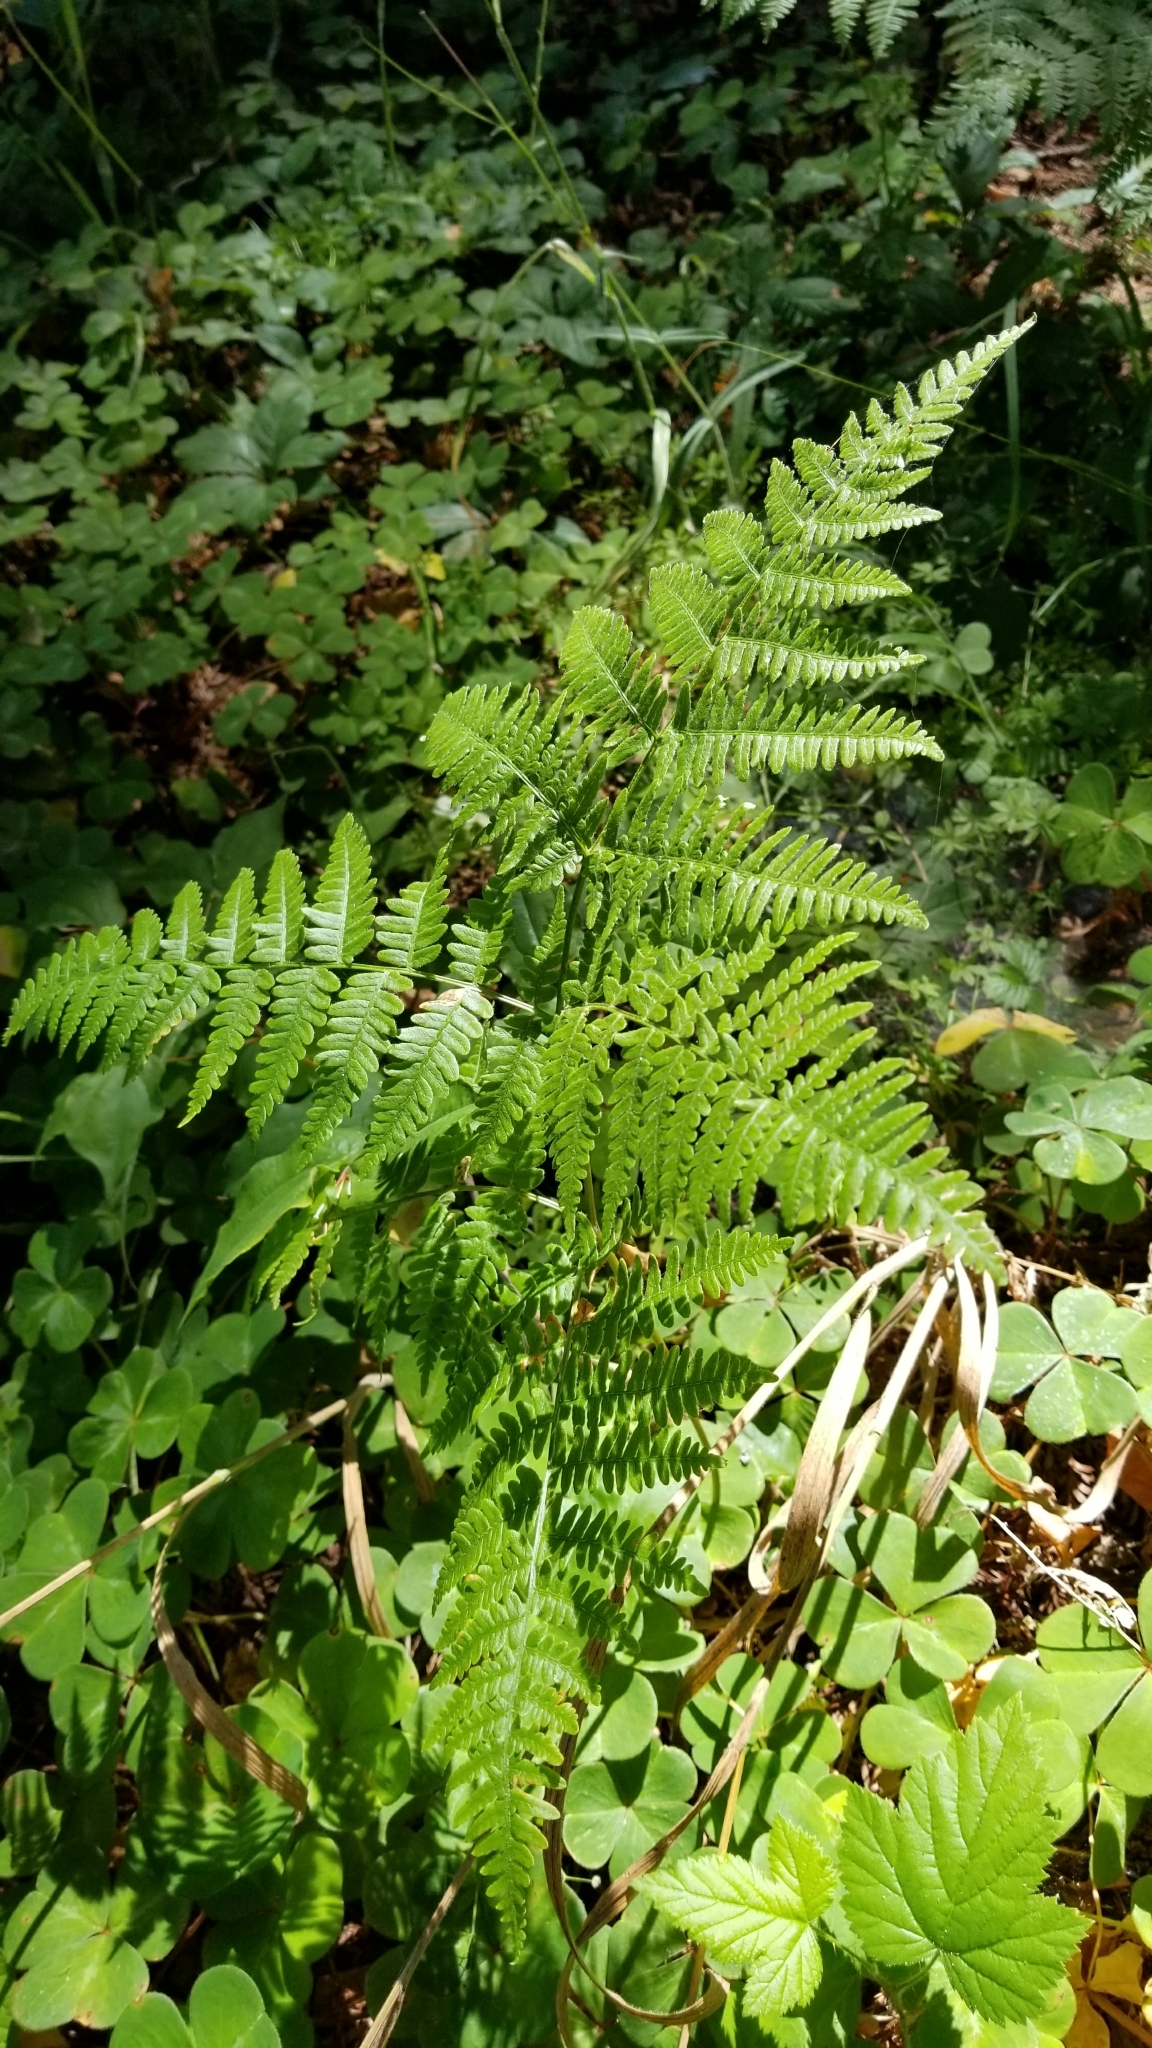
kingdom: Plantae
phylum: Tracheophyta
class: Polypodiopsida
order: Polypodiales
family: Dennstaedtiaceae
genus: Pteridium
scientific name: Pteridium aquilinum
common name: Bracken
